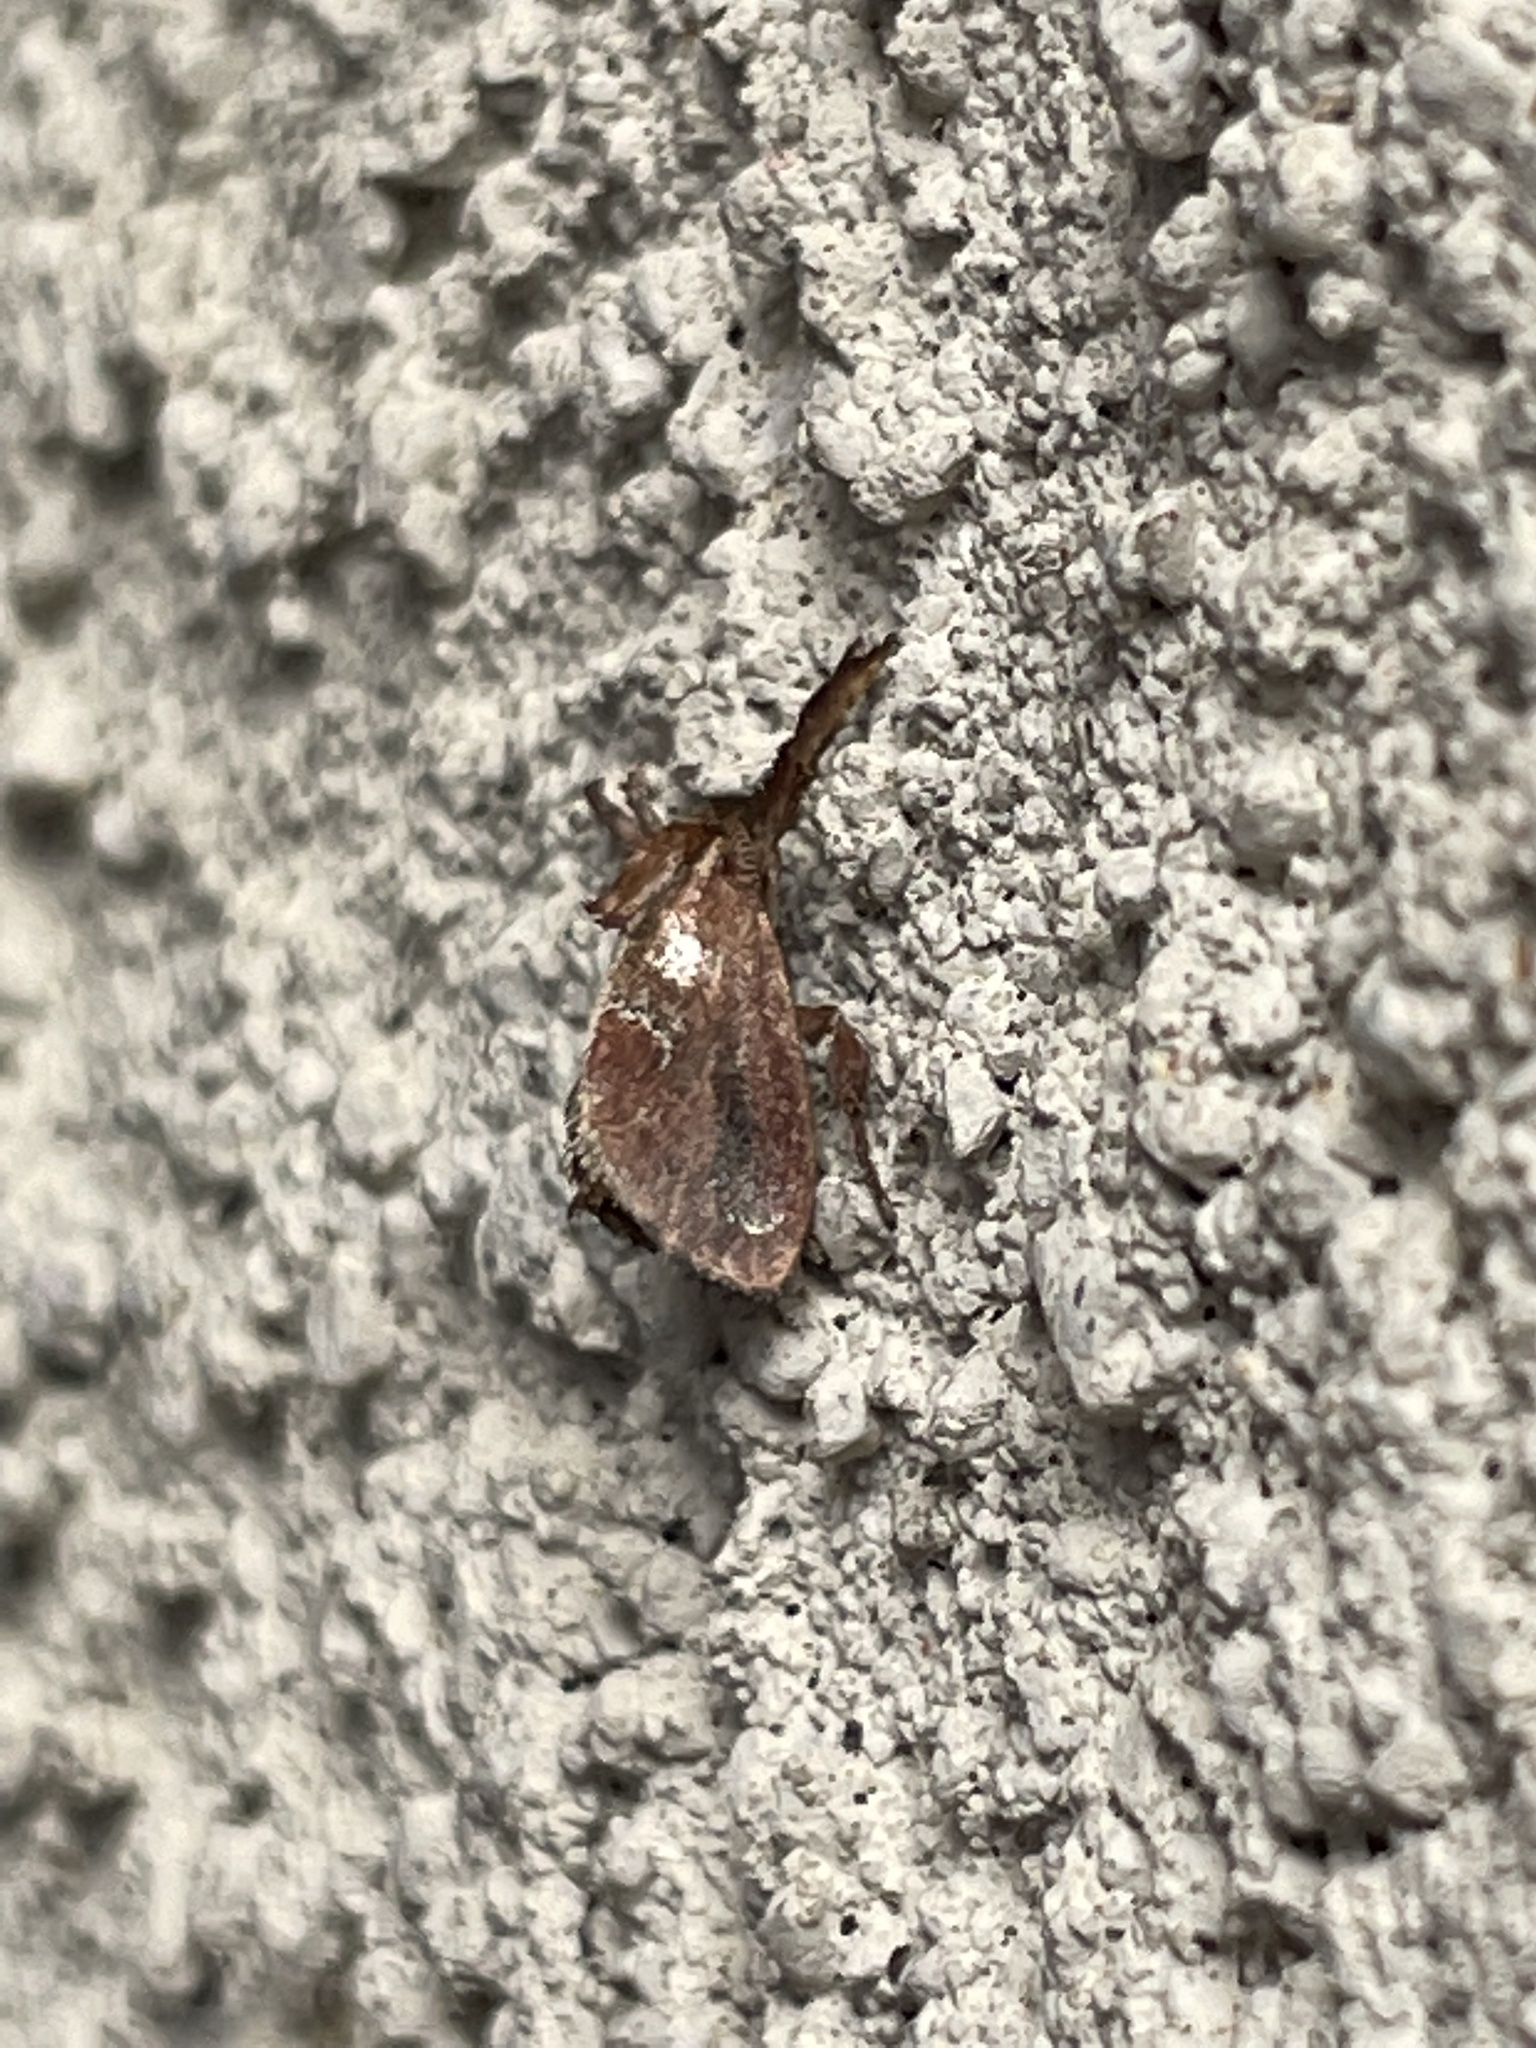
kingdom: Animalia
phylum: Arthropoda
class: Insecta
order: Lepidoptera
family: Limacodidae
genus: Adoneta
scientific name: Adoneta spinuloides
